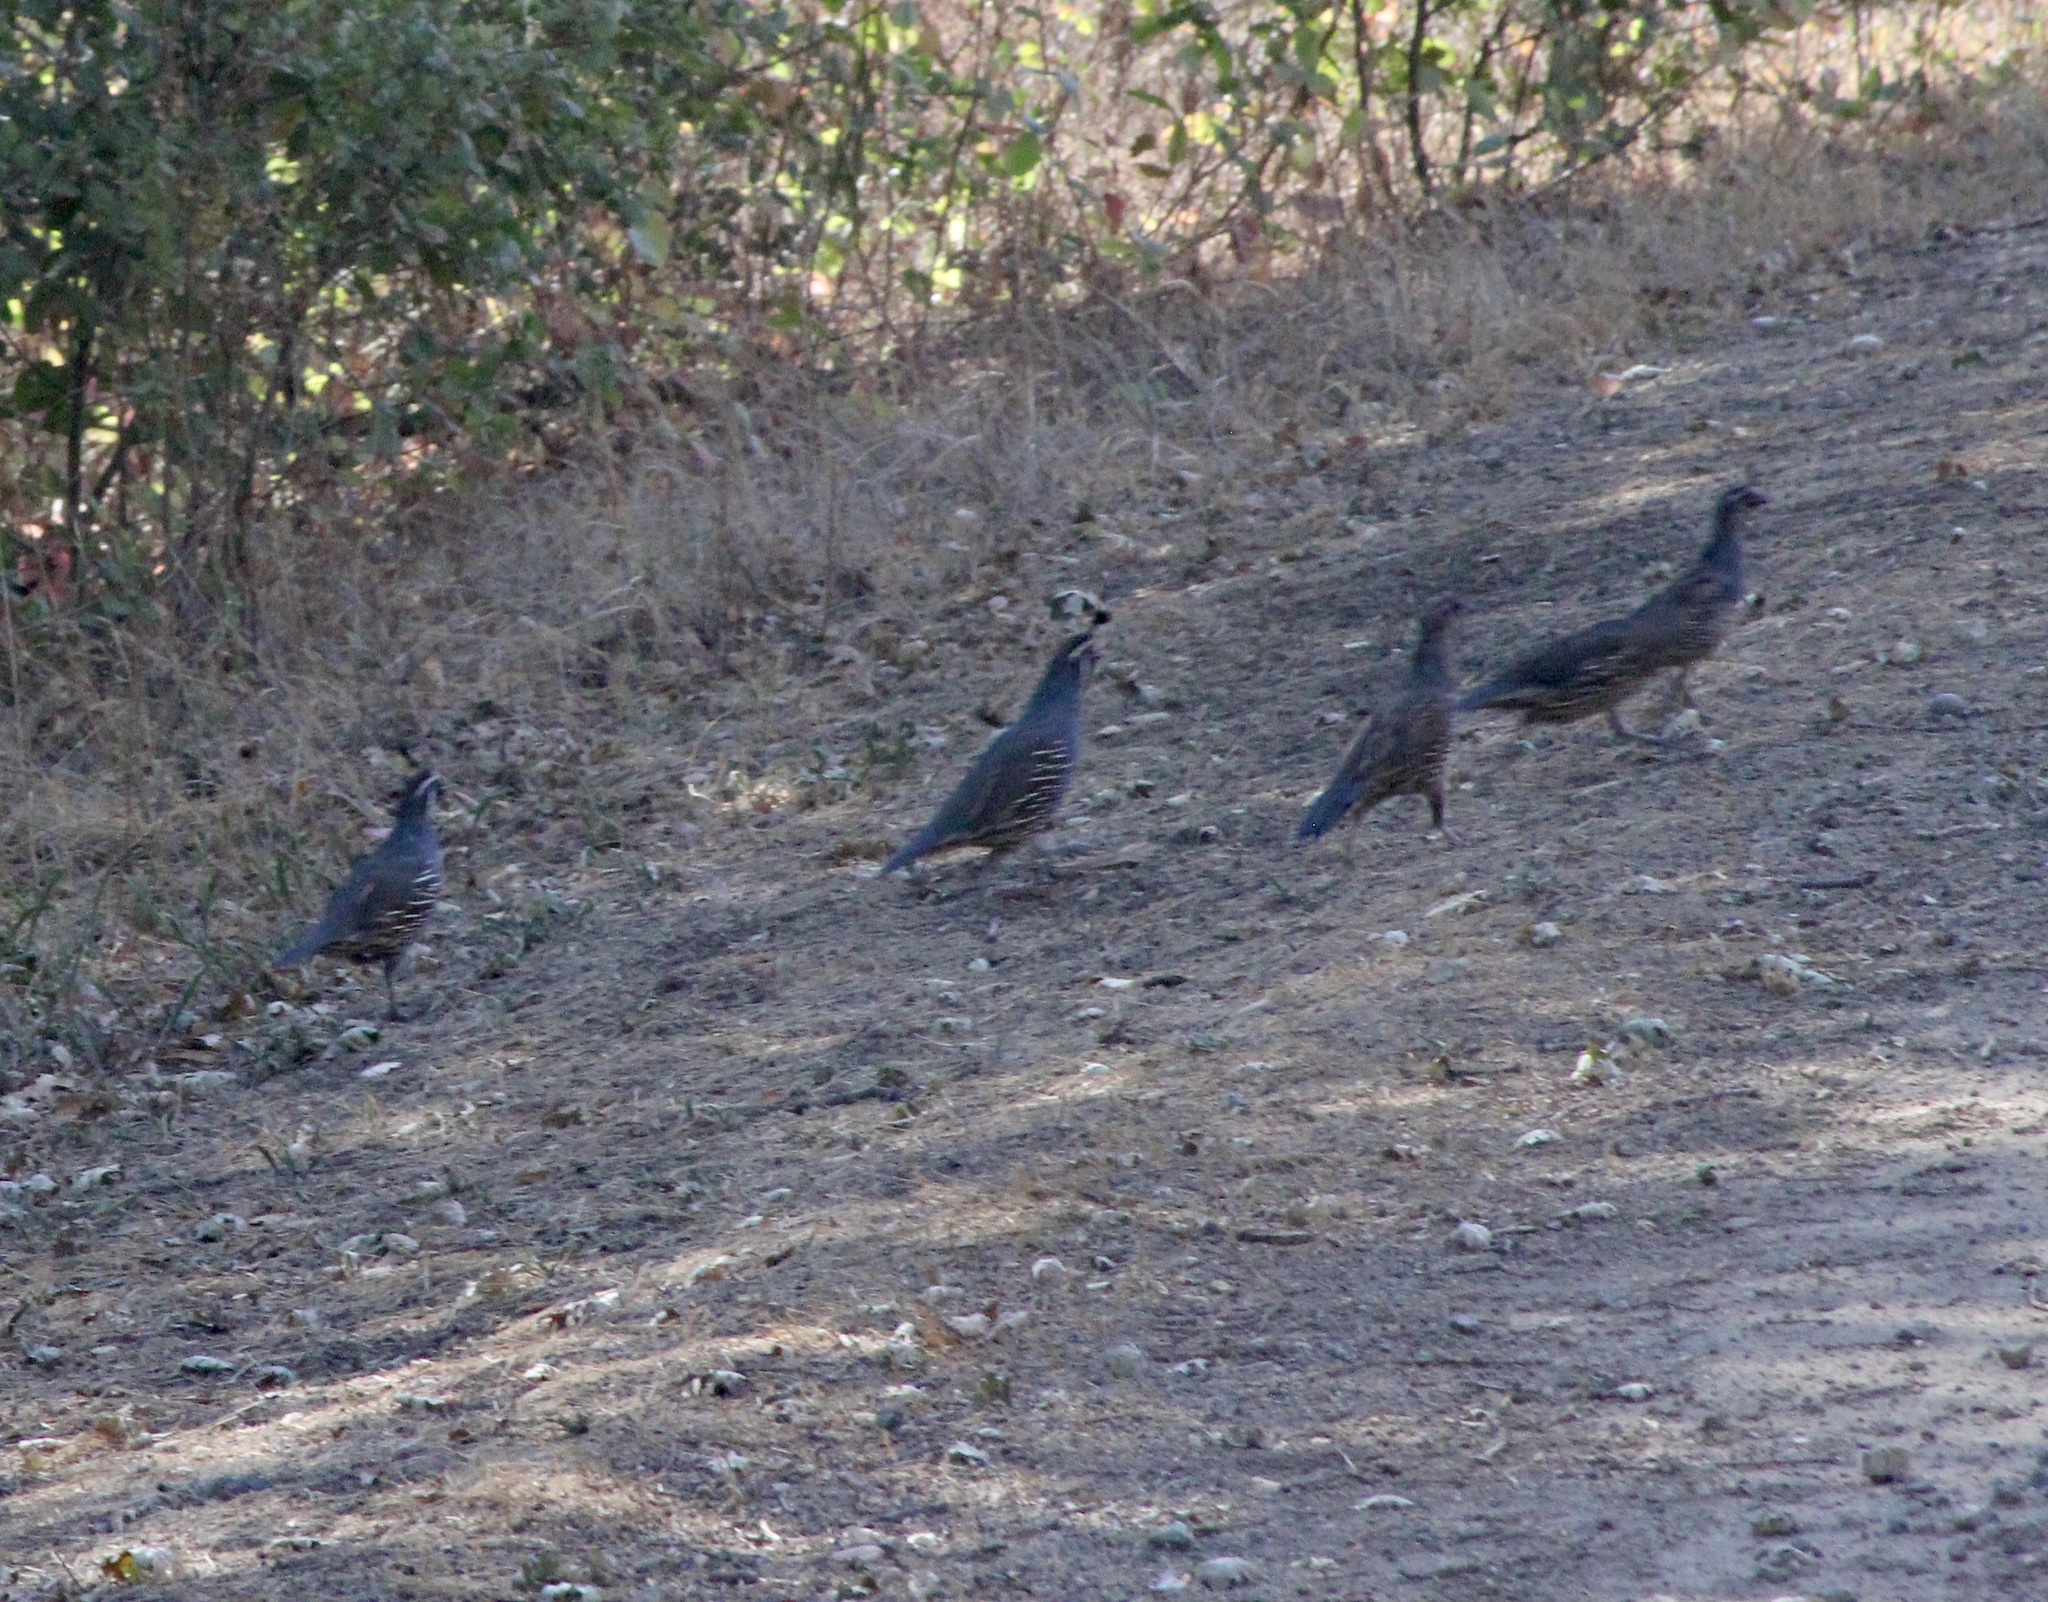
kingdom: Animalia
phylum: Chordata
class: Aves
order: Galliformes
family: Odontophoridae
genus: Callipepla
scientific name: Callipepla californica
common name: California quail
